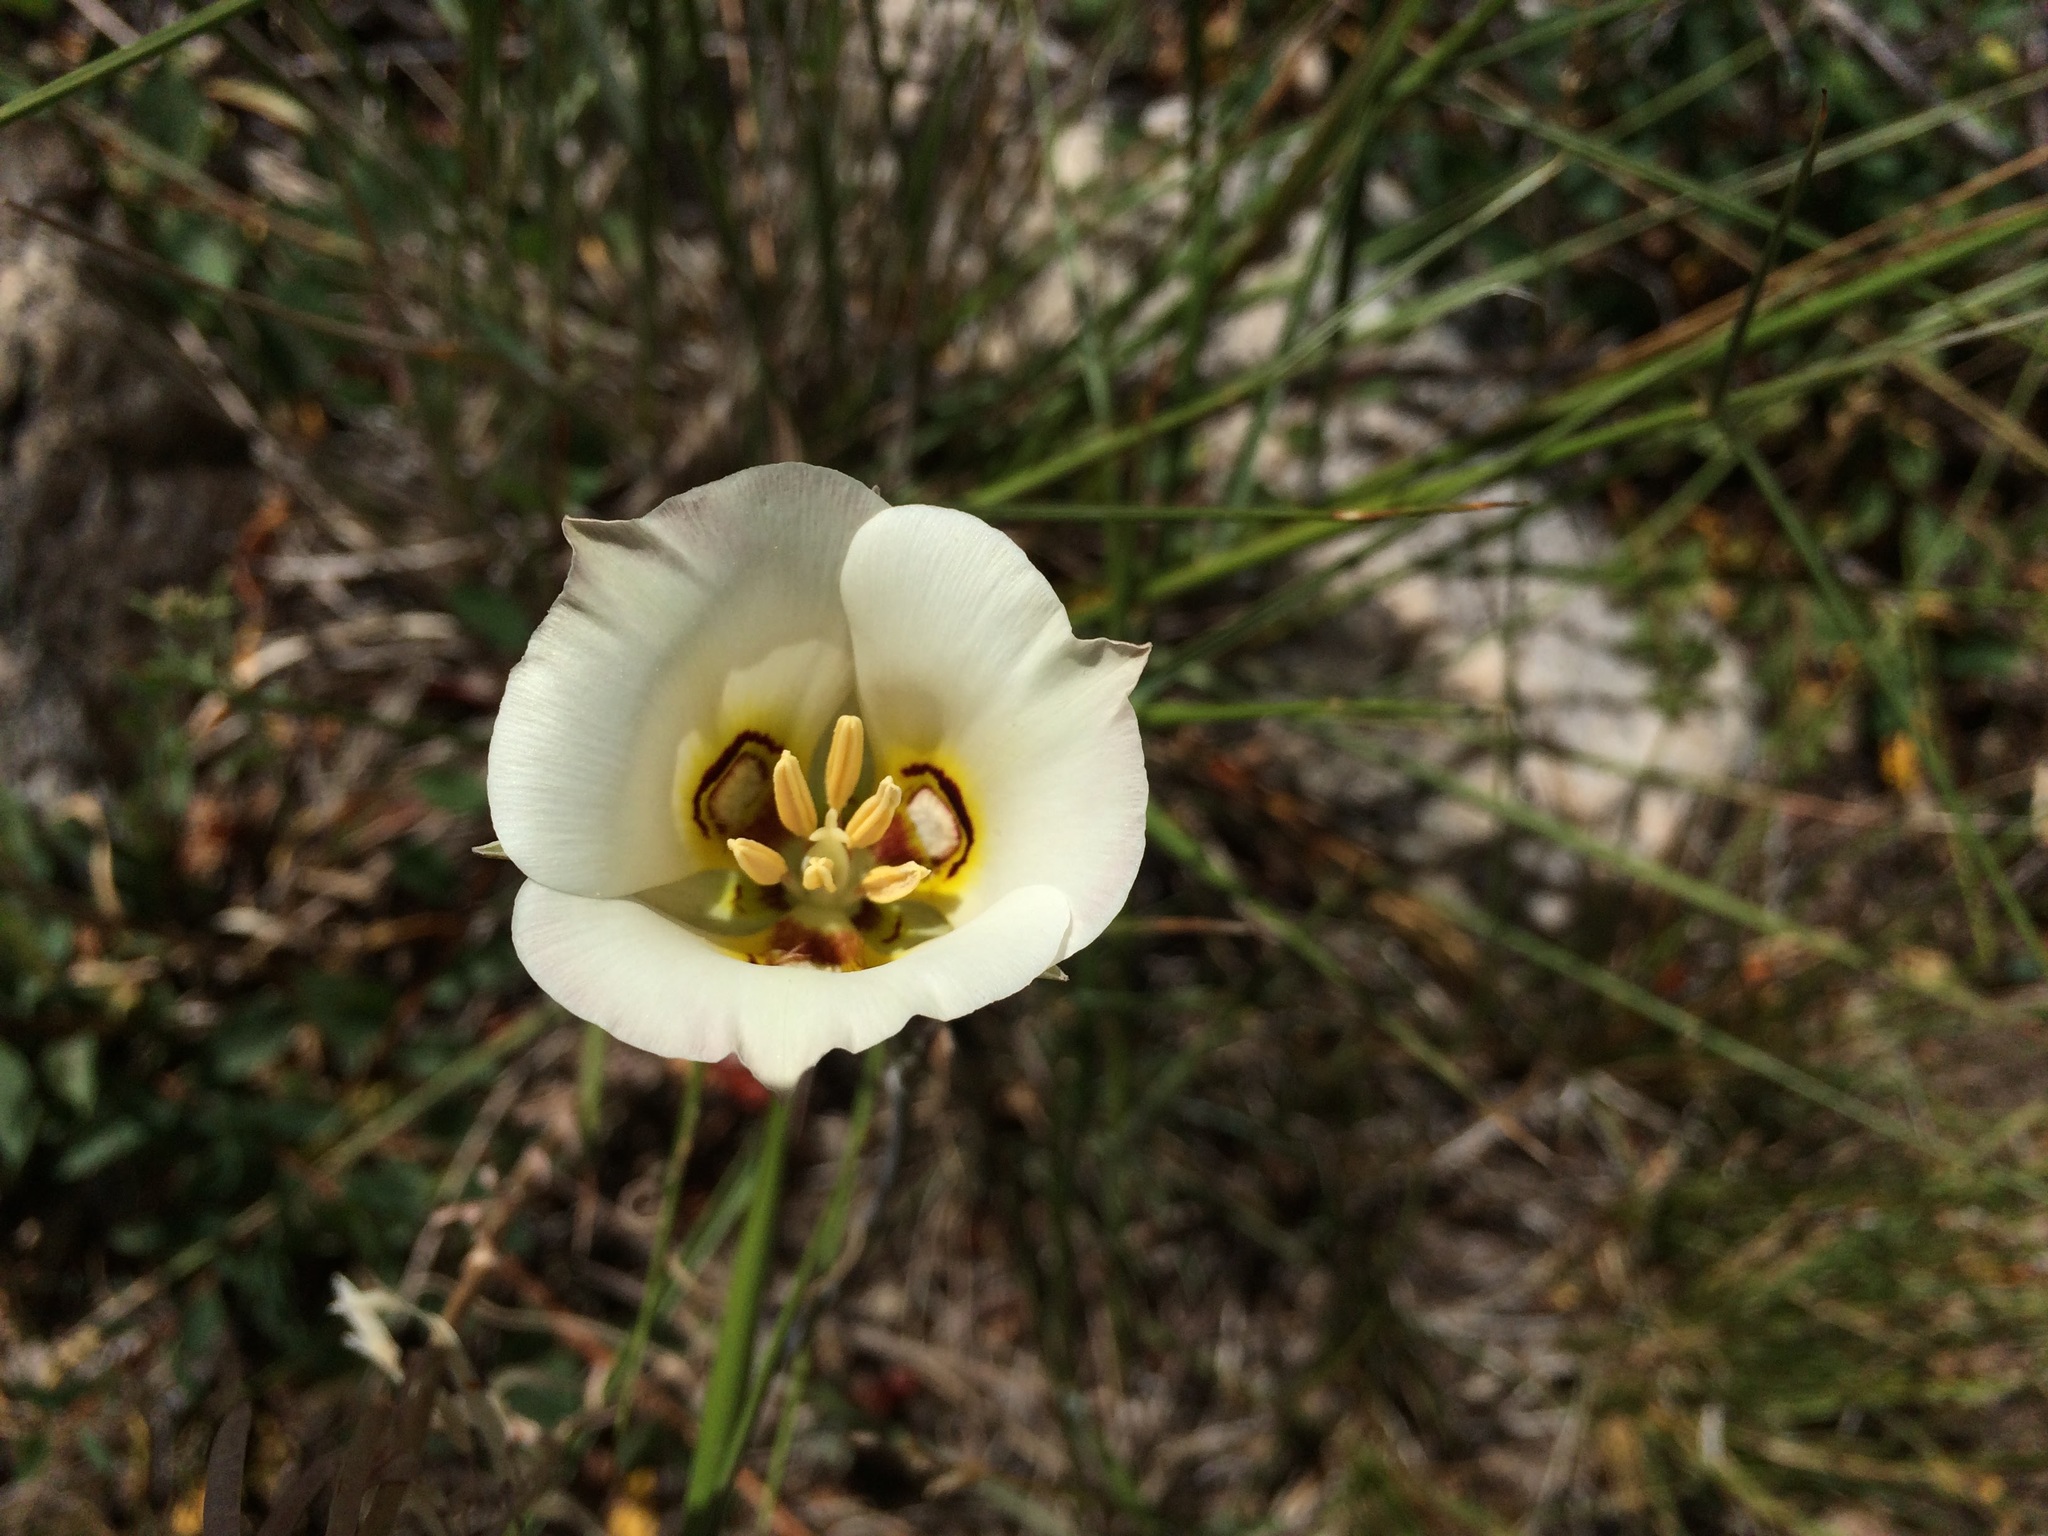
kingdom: Plantae
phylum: Tracheophyta
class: Liliopsida
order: Liliales
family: Liliaceae
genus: Calochortus
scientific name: Calochortus nuttallii
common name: Sego-lily
